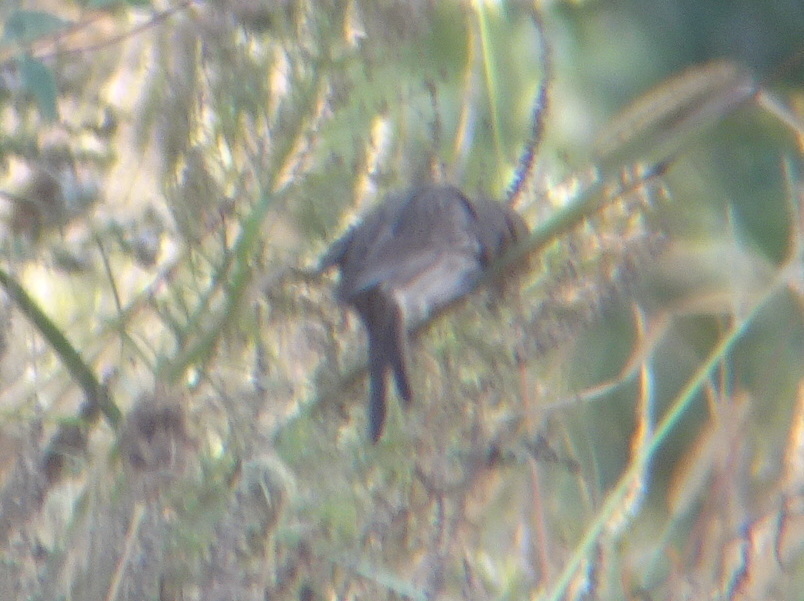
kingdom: Animalia
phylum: Chordata
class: Aves
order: Passeriformes
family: Passerellidae
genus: Melospiza
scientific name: Melospiza melodia
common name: Song sparrow
